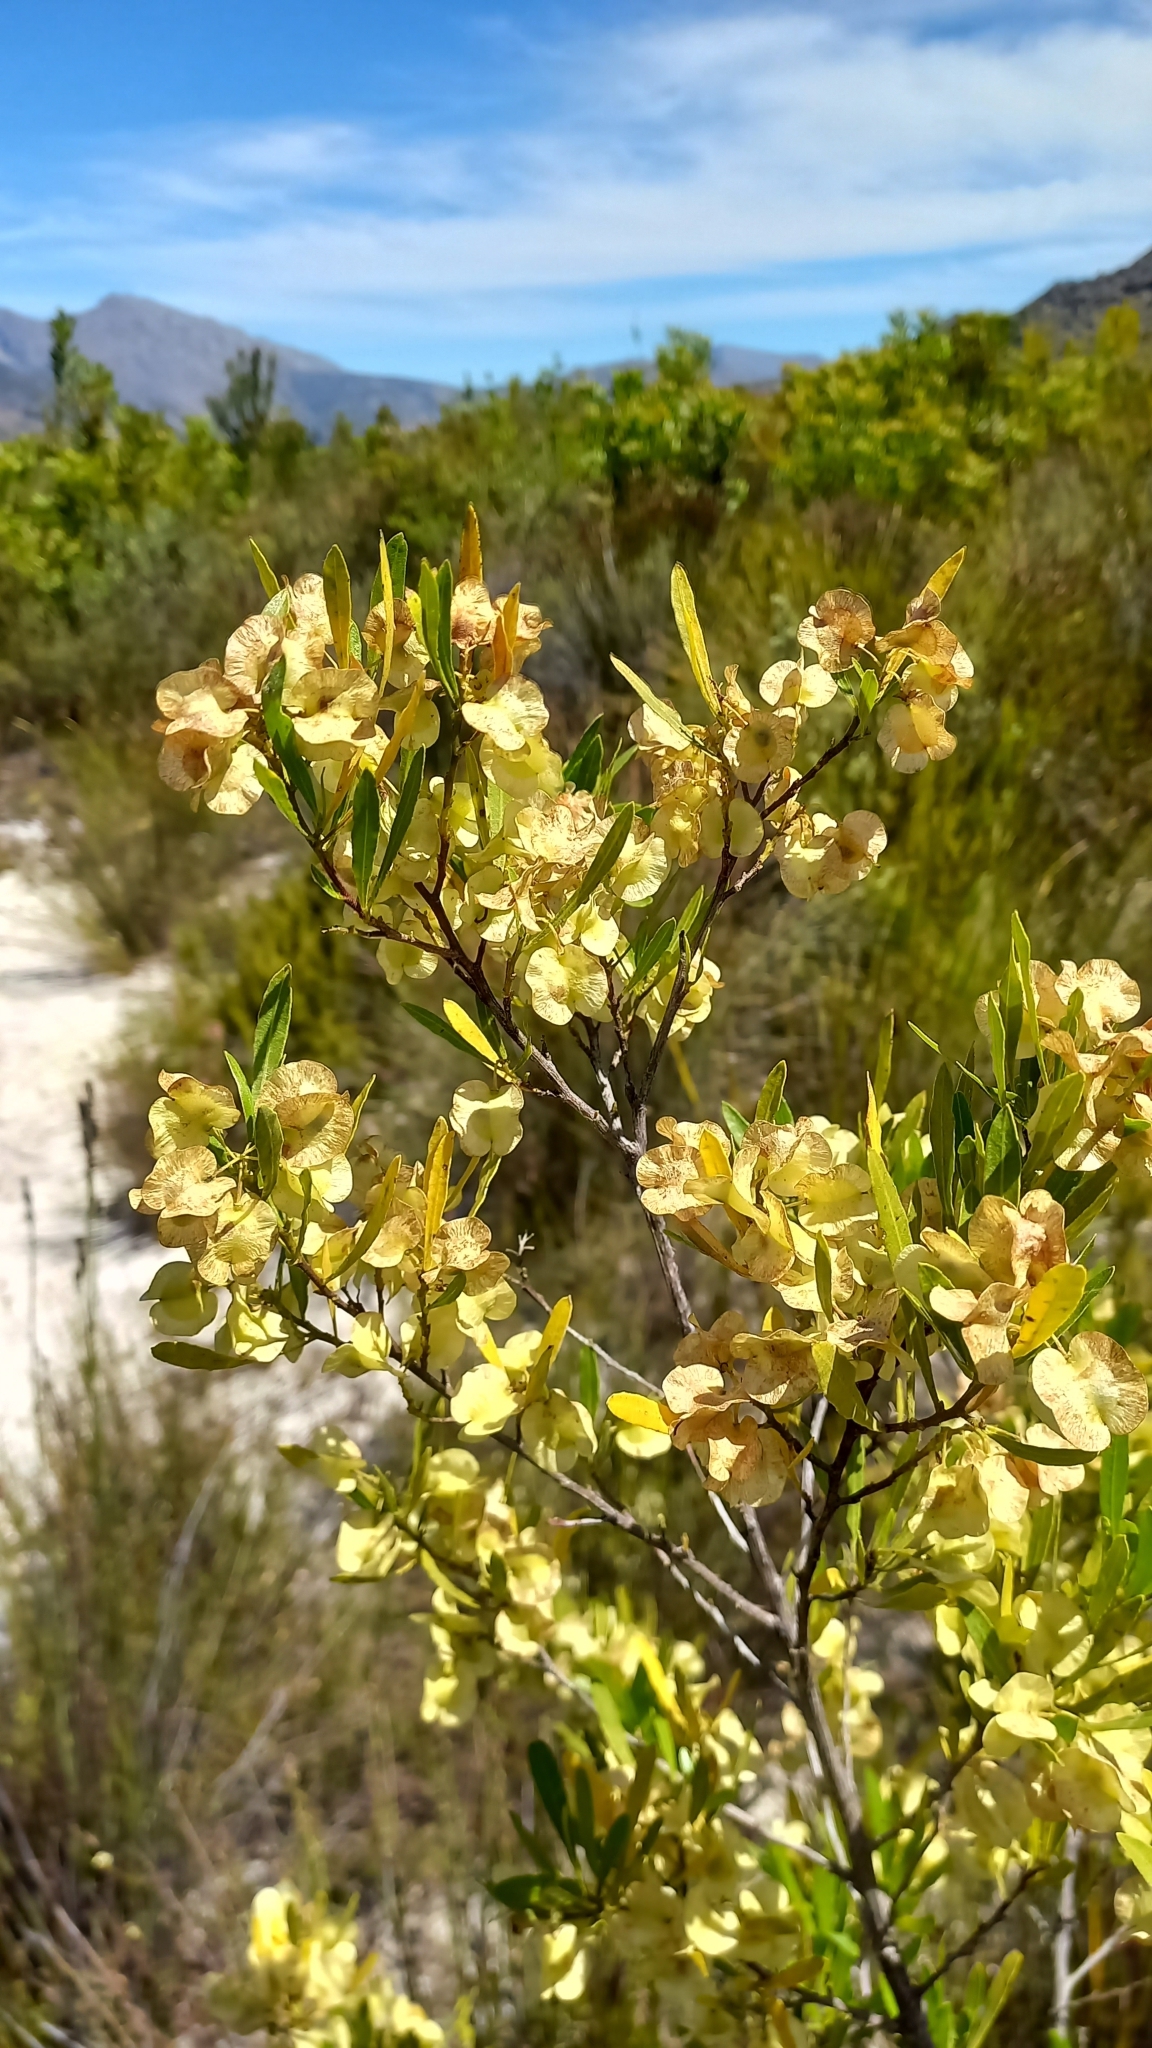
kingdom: Plantae
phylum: Tracheophyta
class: Magnoliopsida
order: Sapindales
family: Sapindaceae
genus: Dodonaea
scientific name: Dodonaea viscosa
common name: Hopbush
